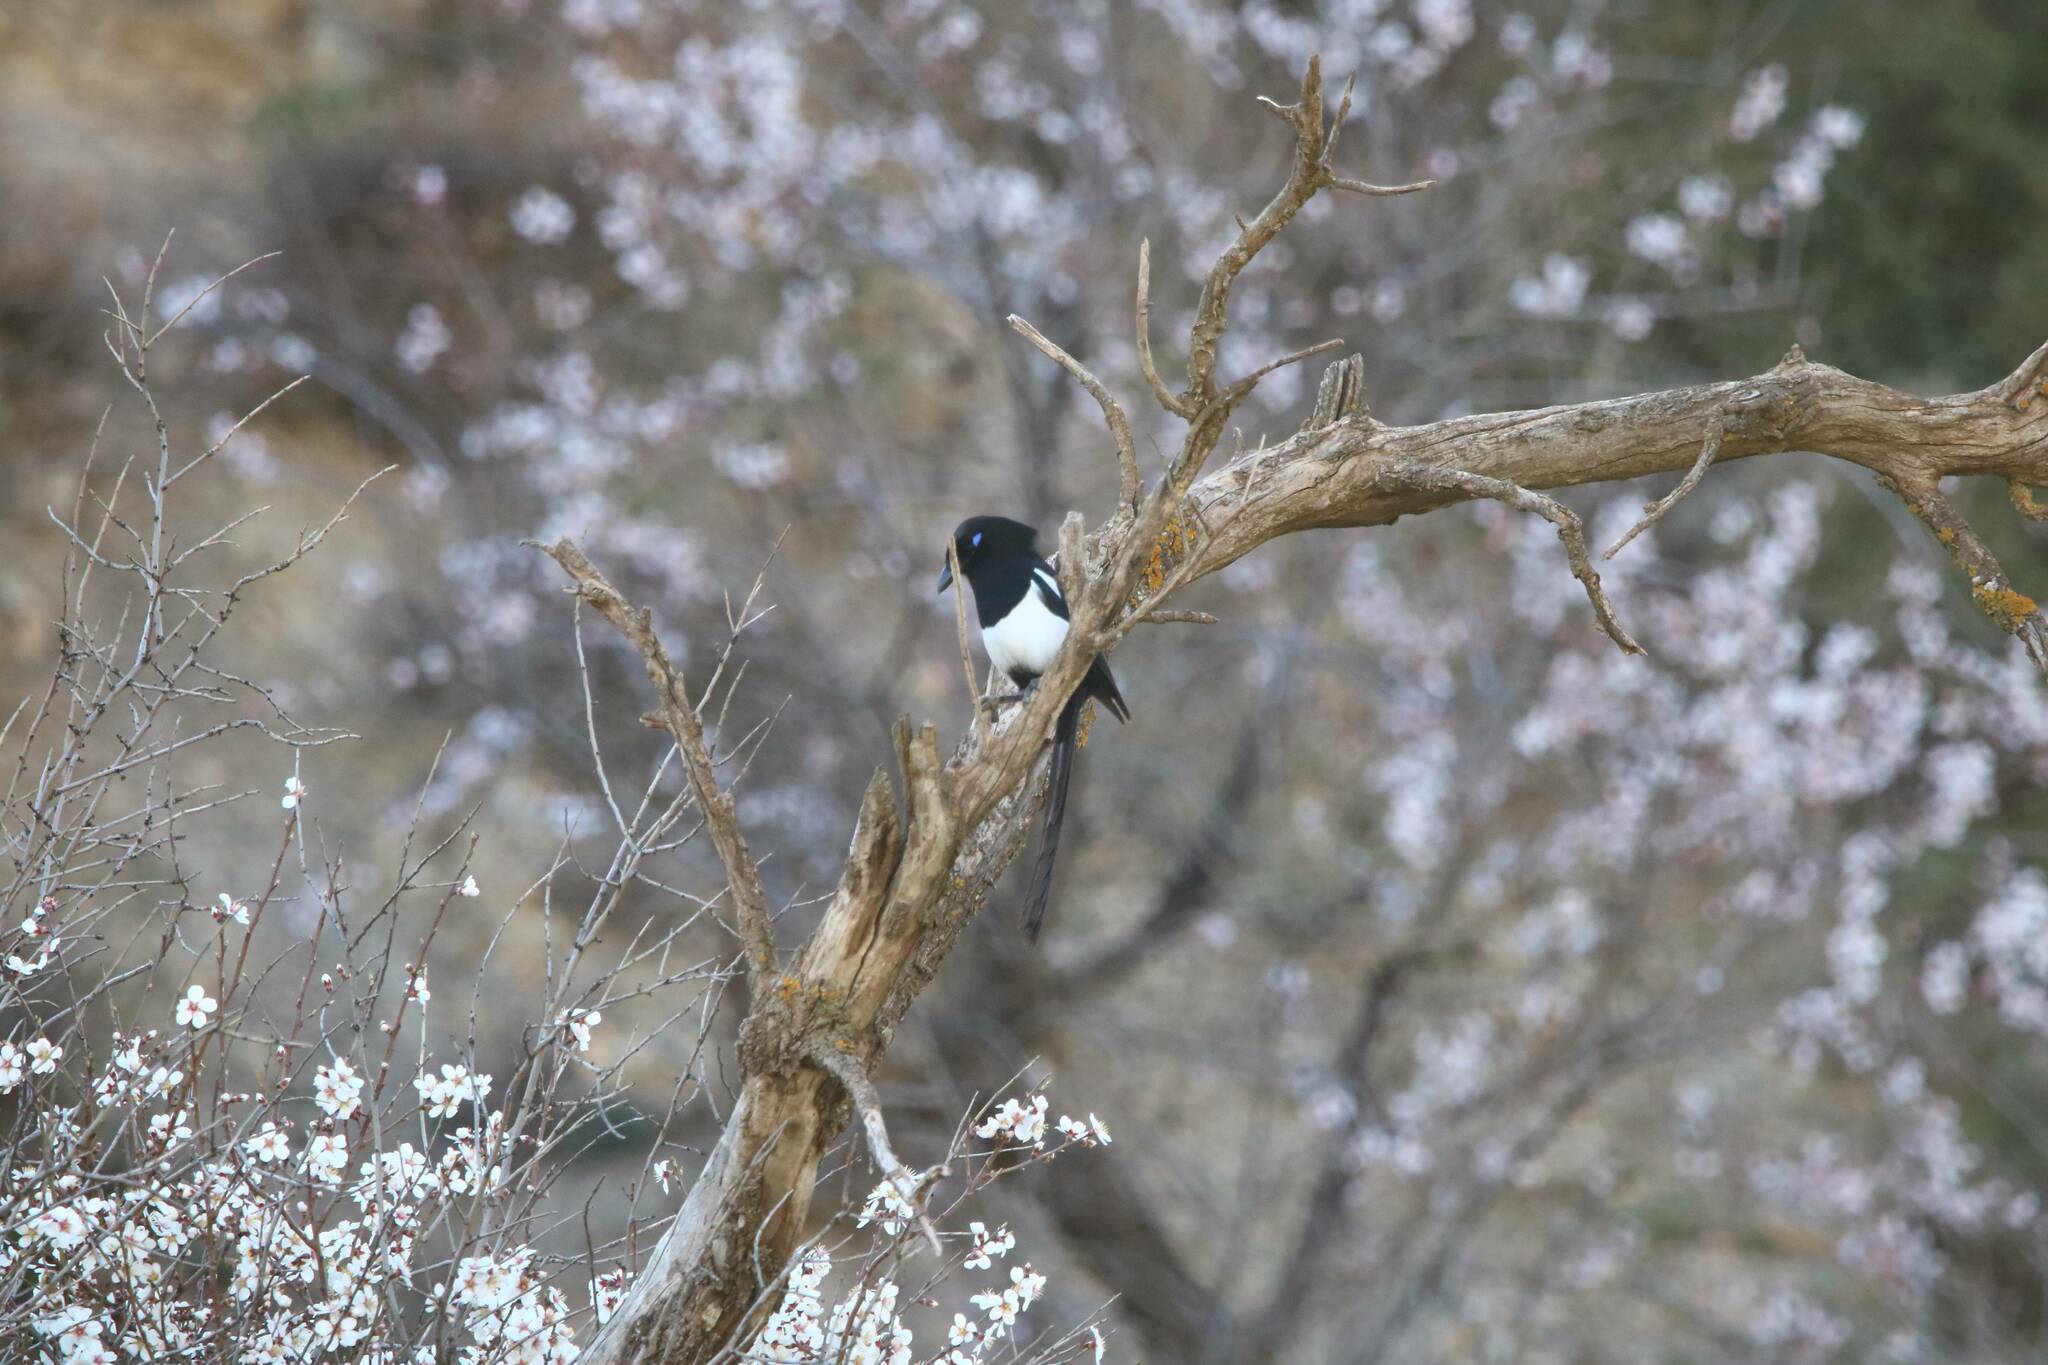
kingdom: Animalia
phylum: Chordata
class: Aves
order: Passeriformes
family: Corvidae
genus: Pica
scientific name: Pica mauritanica
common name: Maghreb magpie
